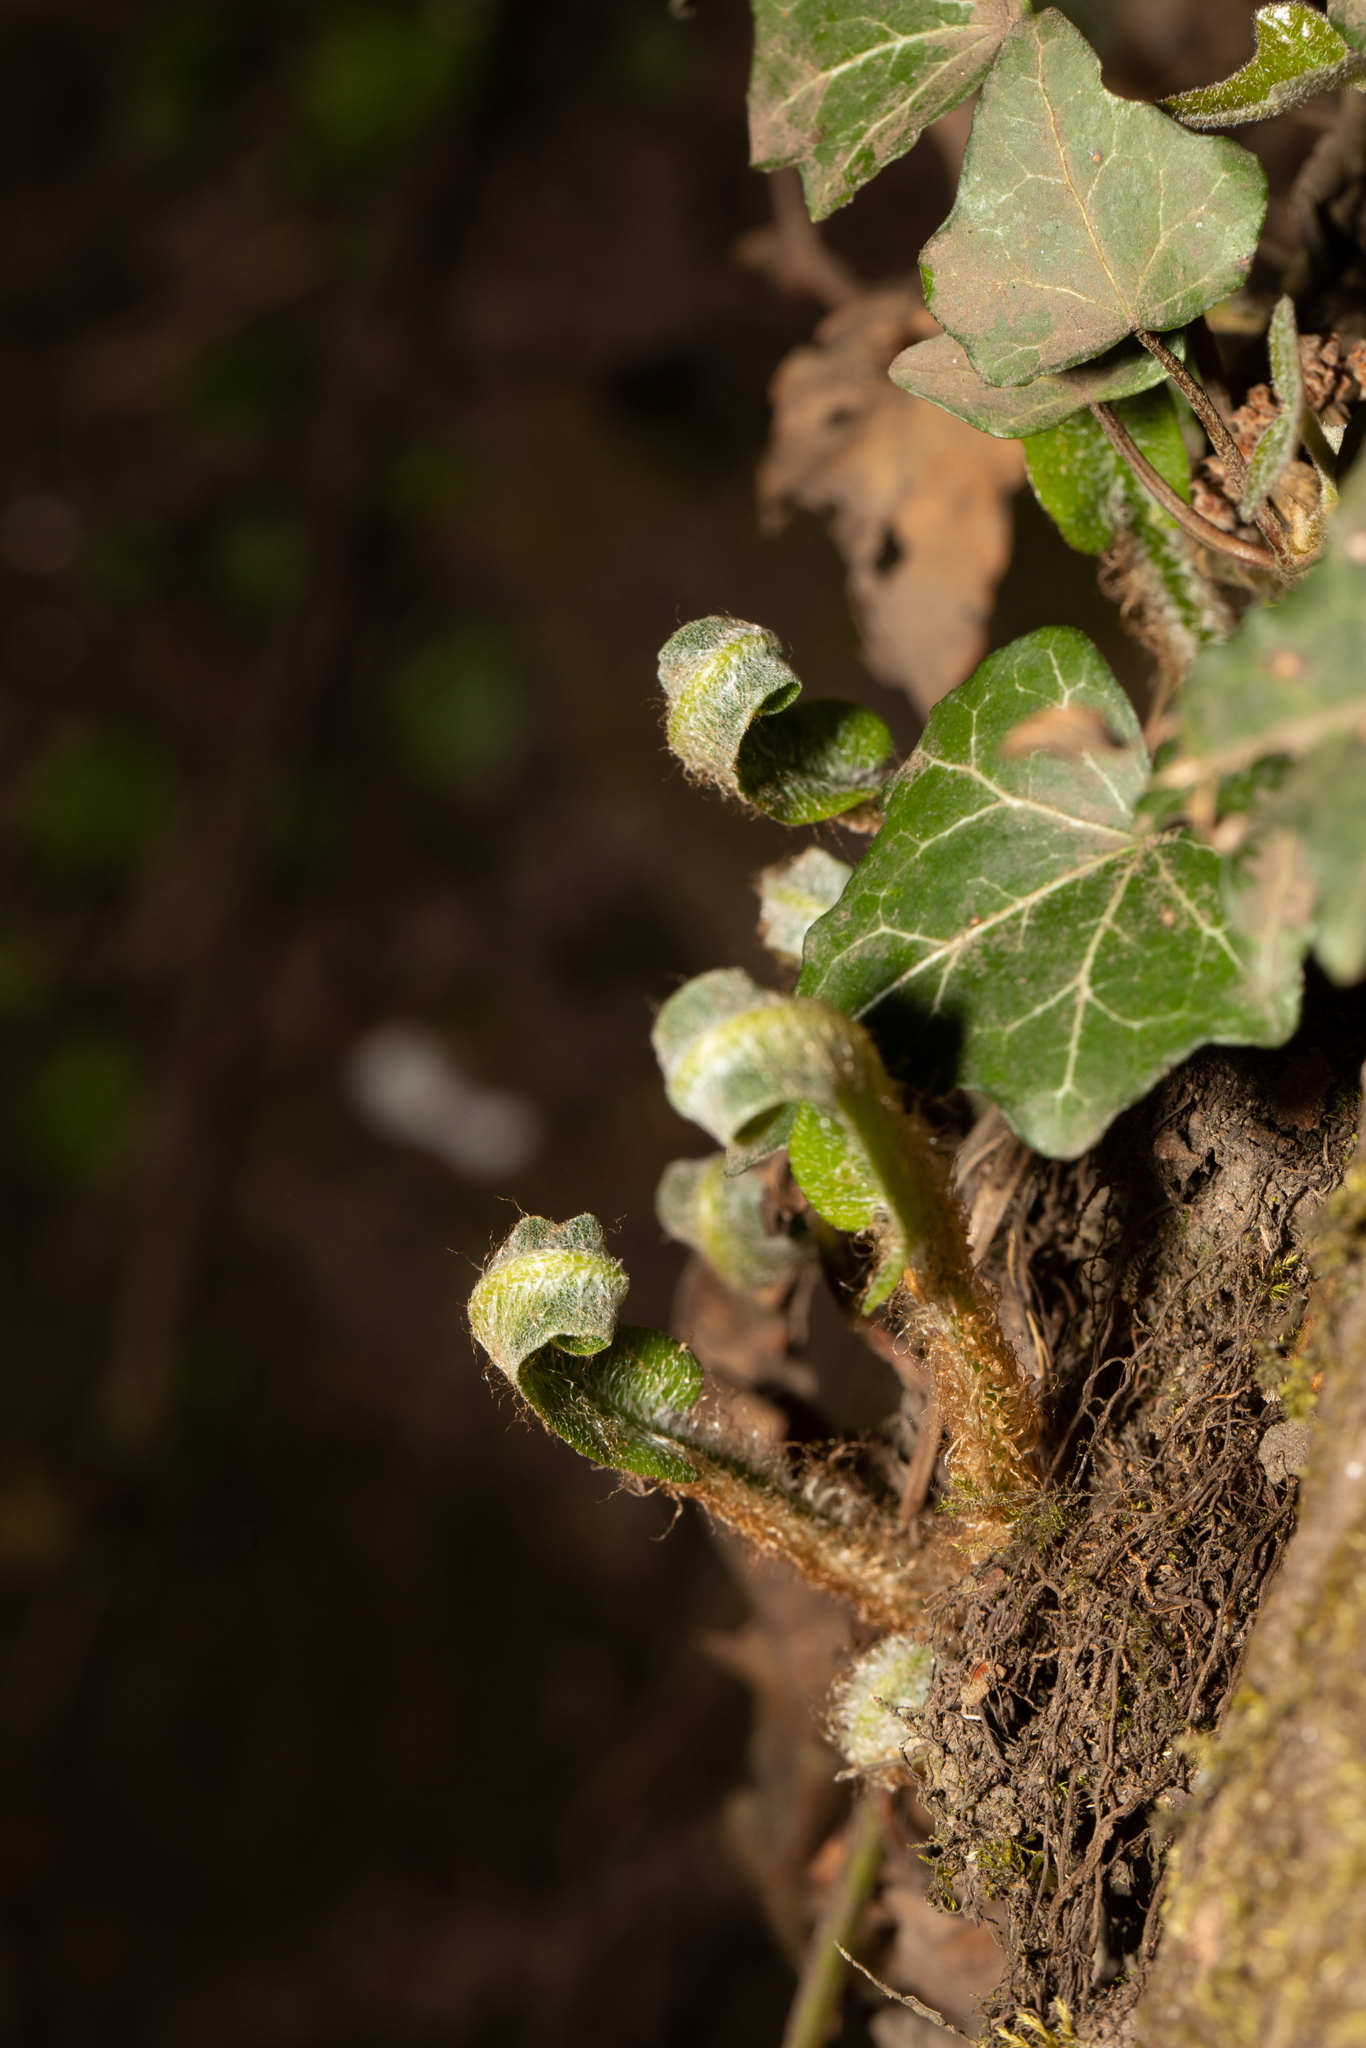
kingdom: Plantae
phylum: Tracheophyta
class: Polypodiopsida
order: Polypodiales
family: Aspleniaceae
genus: Asplenium
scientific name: Asplenium scolopendrium
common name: Hart's-tongue fern
